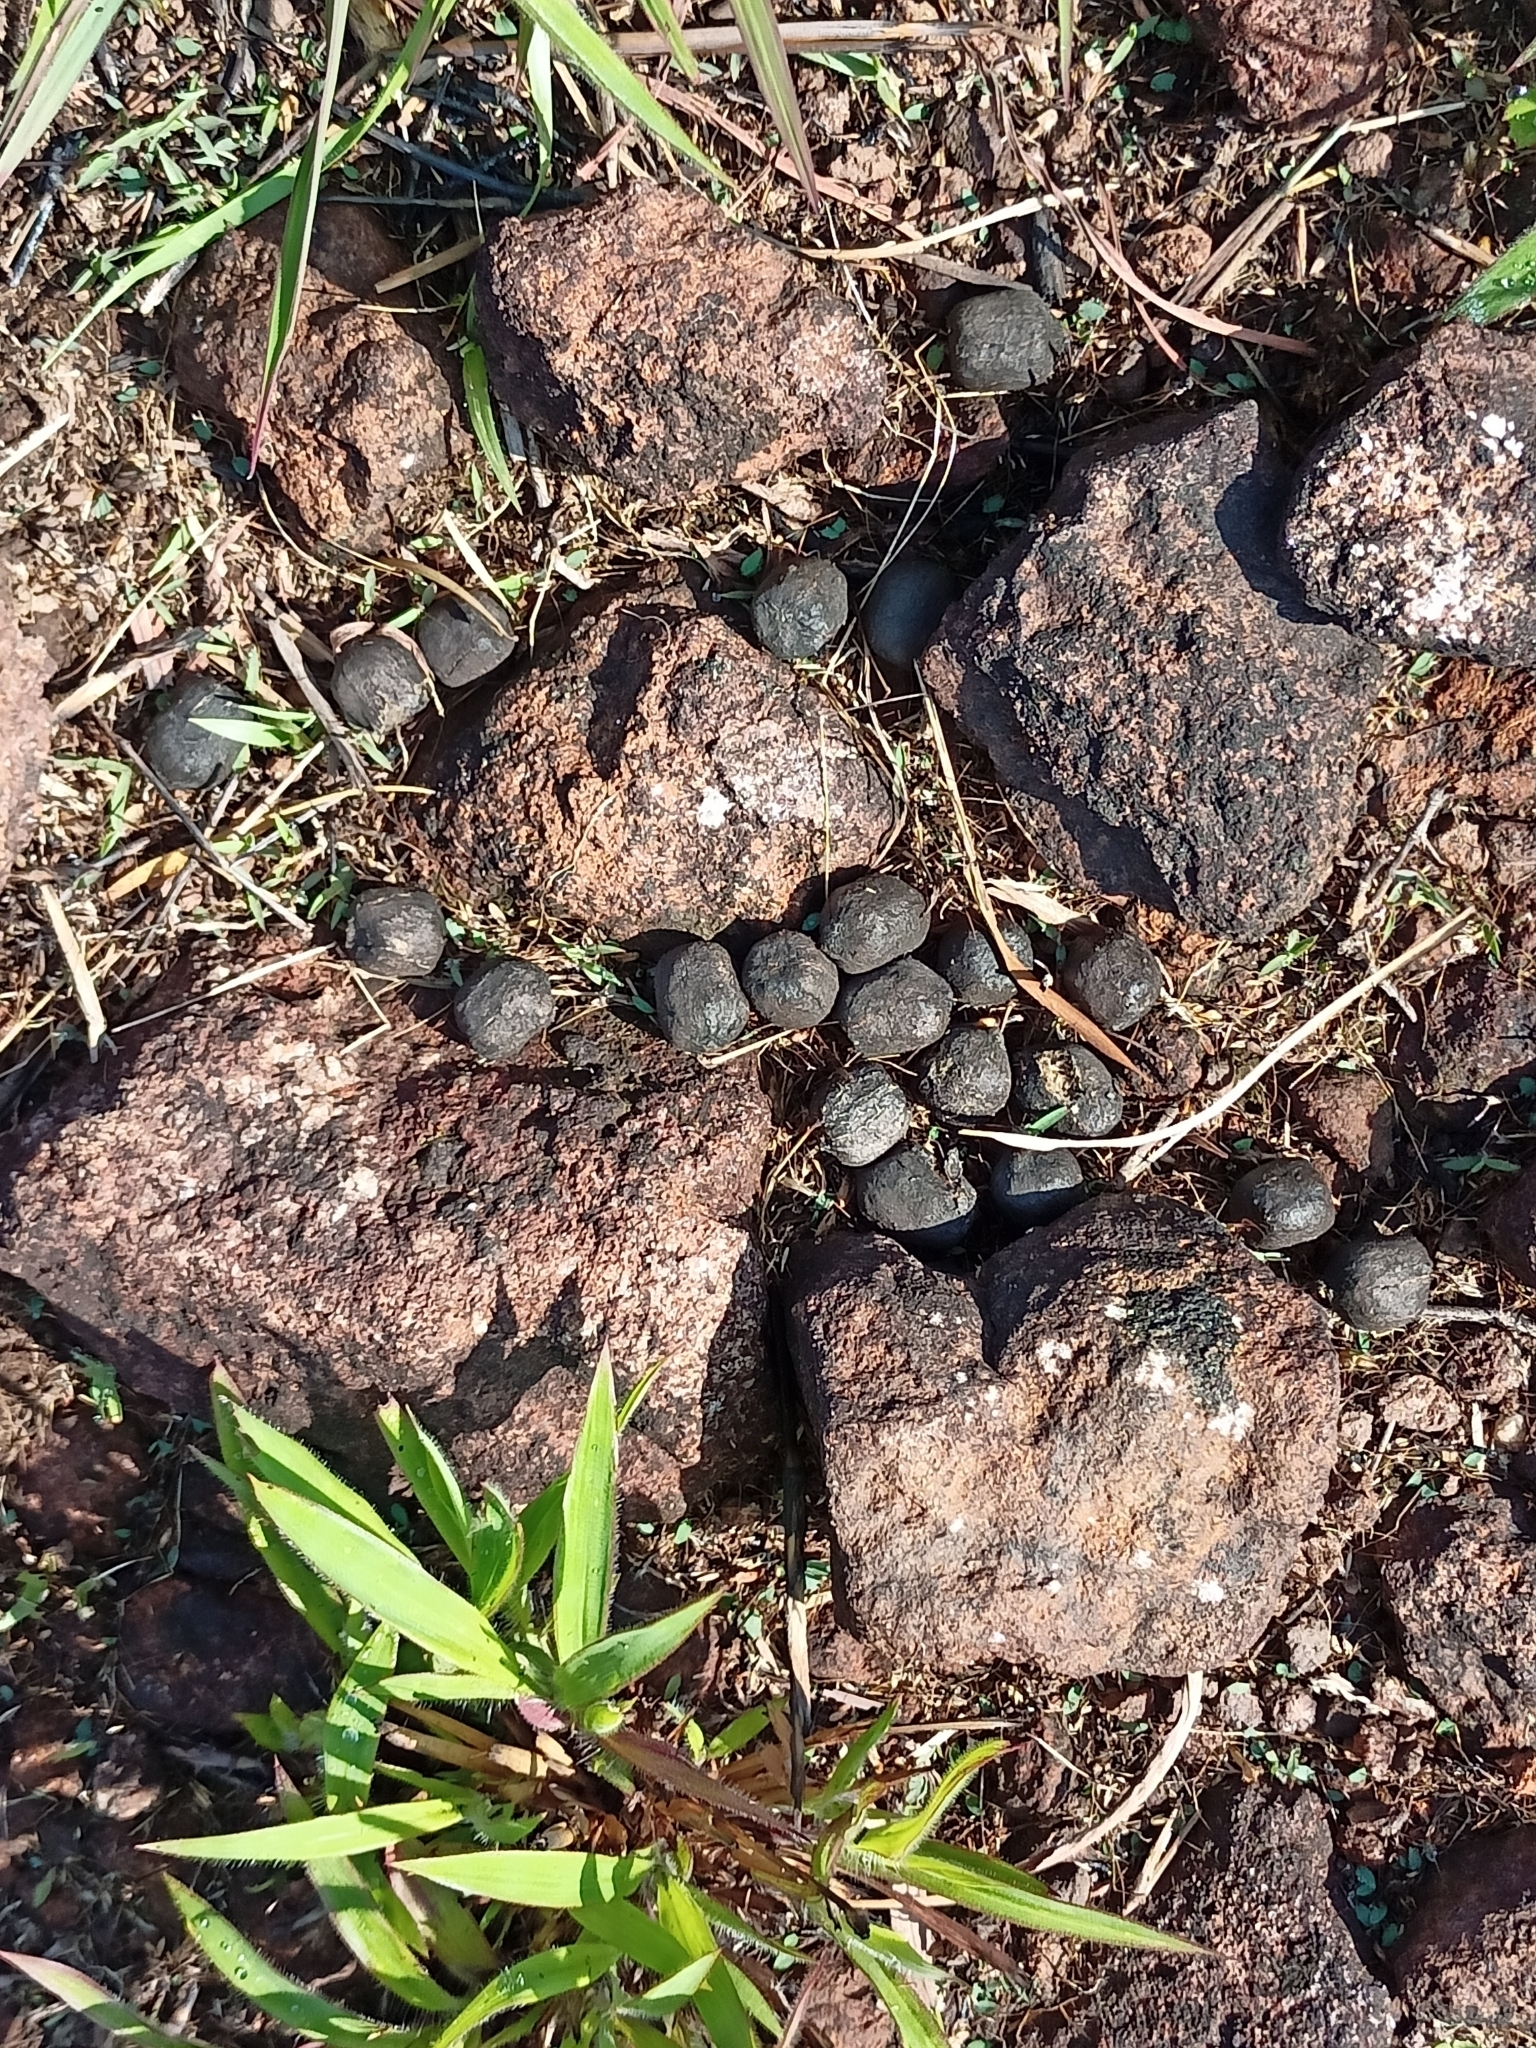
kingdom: Animalia
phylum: Chordata
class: Mammalia
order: Artiodactyla
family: Cervidae
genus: Rusa
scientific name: Rusa unicolor
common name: Sambar
